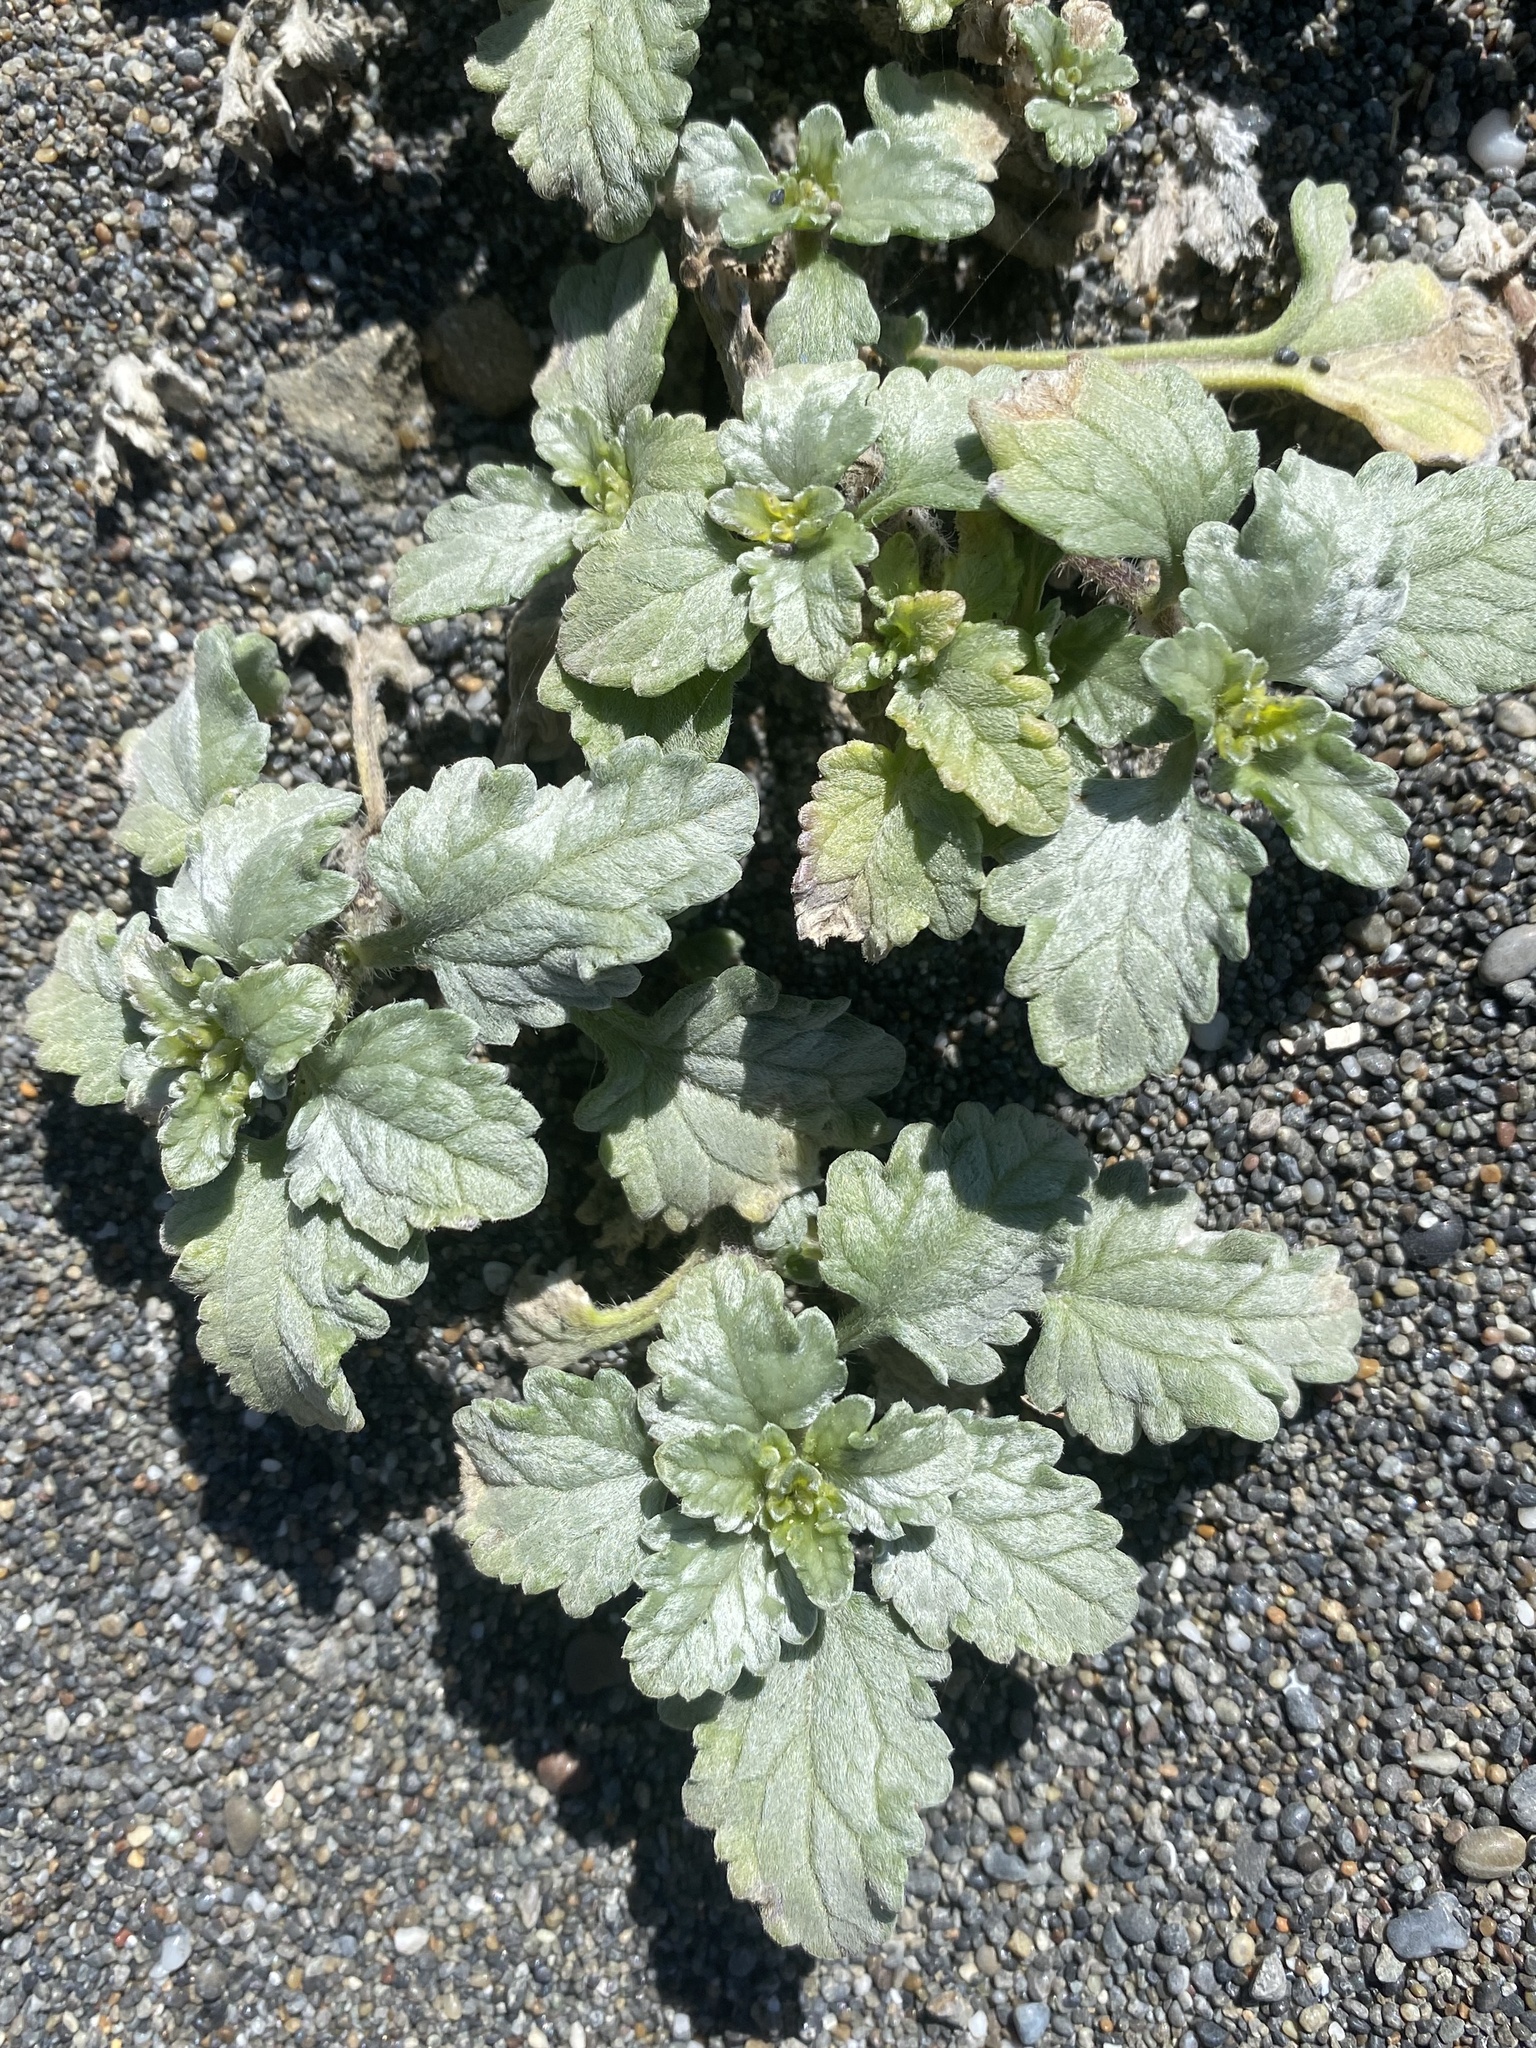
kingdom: Plantae
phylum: Tracheophyta
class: Magnoliopsida
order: Asterales
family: Asteraceae
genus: Ambrosia
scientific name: Ambrosia chamissonis
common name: Beachbur
